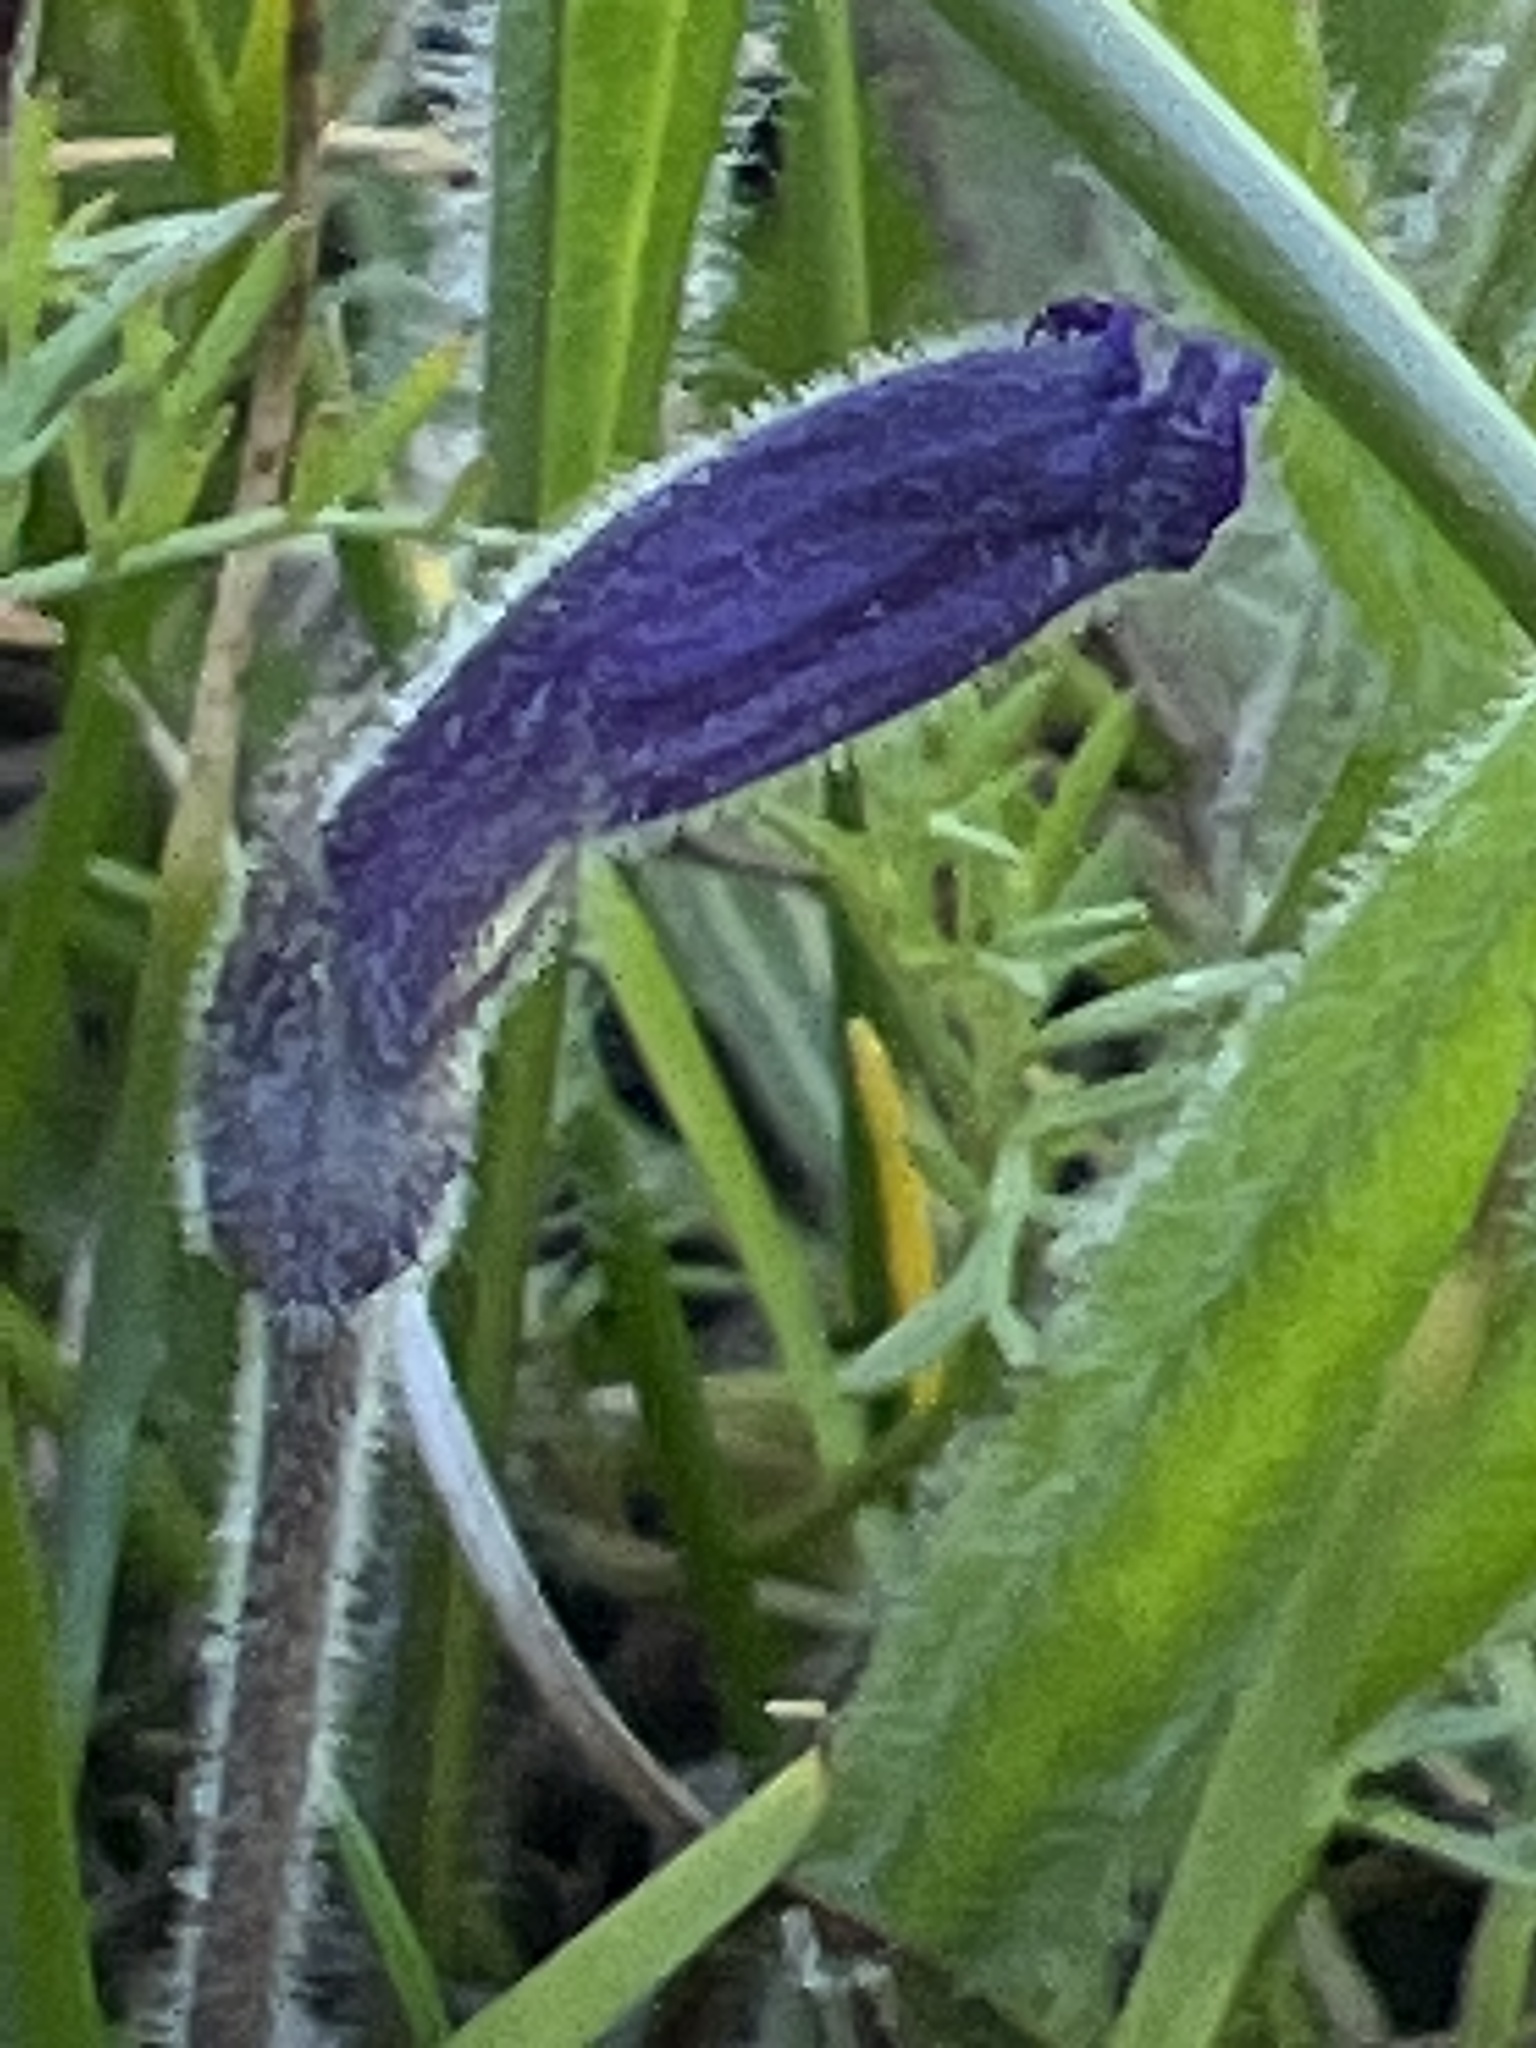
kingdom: Plantae
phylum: Tracheophyta
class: Magnoliopsida
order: Lamiales
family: Orobanchaceae
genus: Aphyllon
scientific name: Aphyllon uniflorum
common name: One-flowered broomrape
